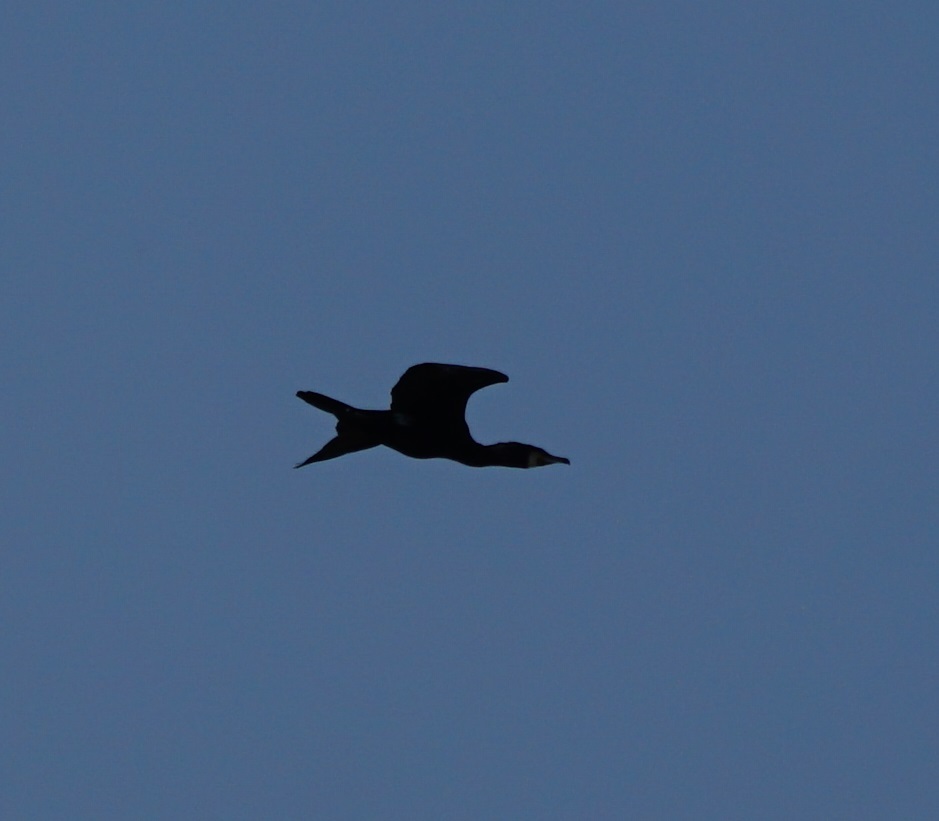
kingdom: Animalia
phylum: Chordata
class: Aves
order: Suliformes
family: Phalacrocoracidae
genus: Phalacrocorax
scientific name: Phalacrocorax carbo
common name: Great cormorant
